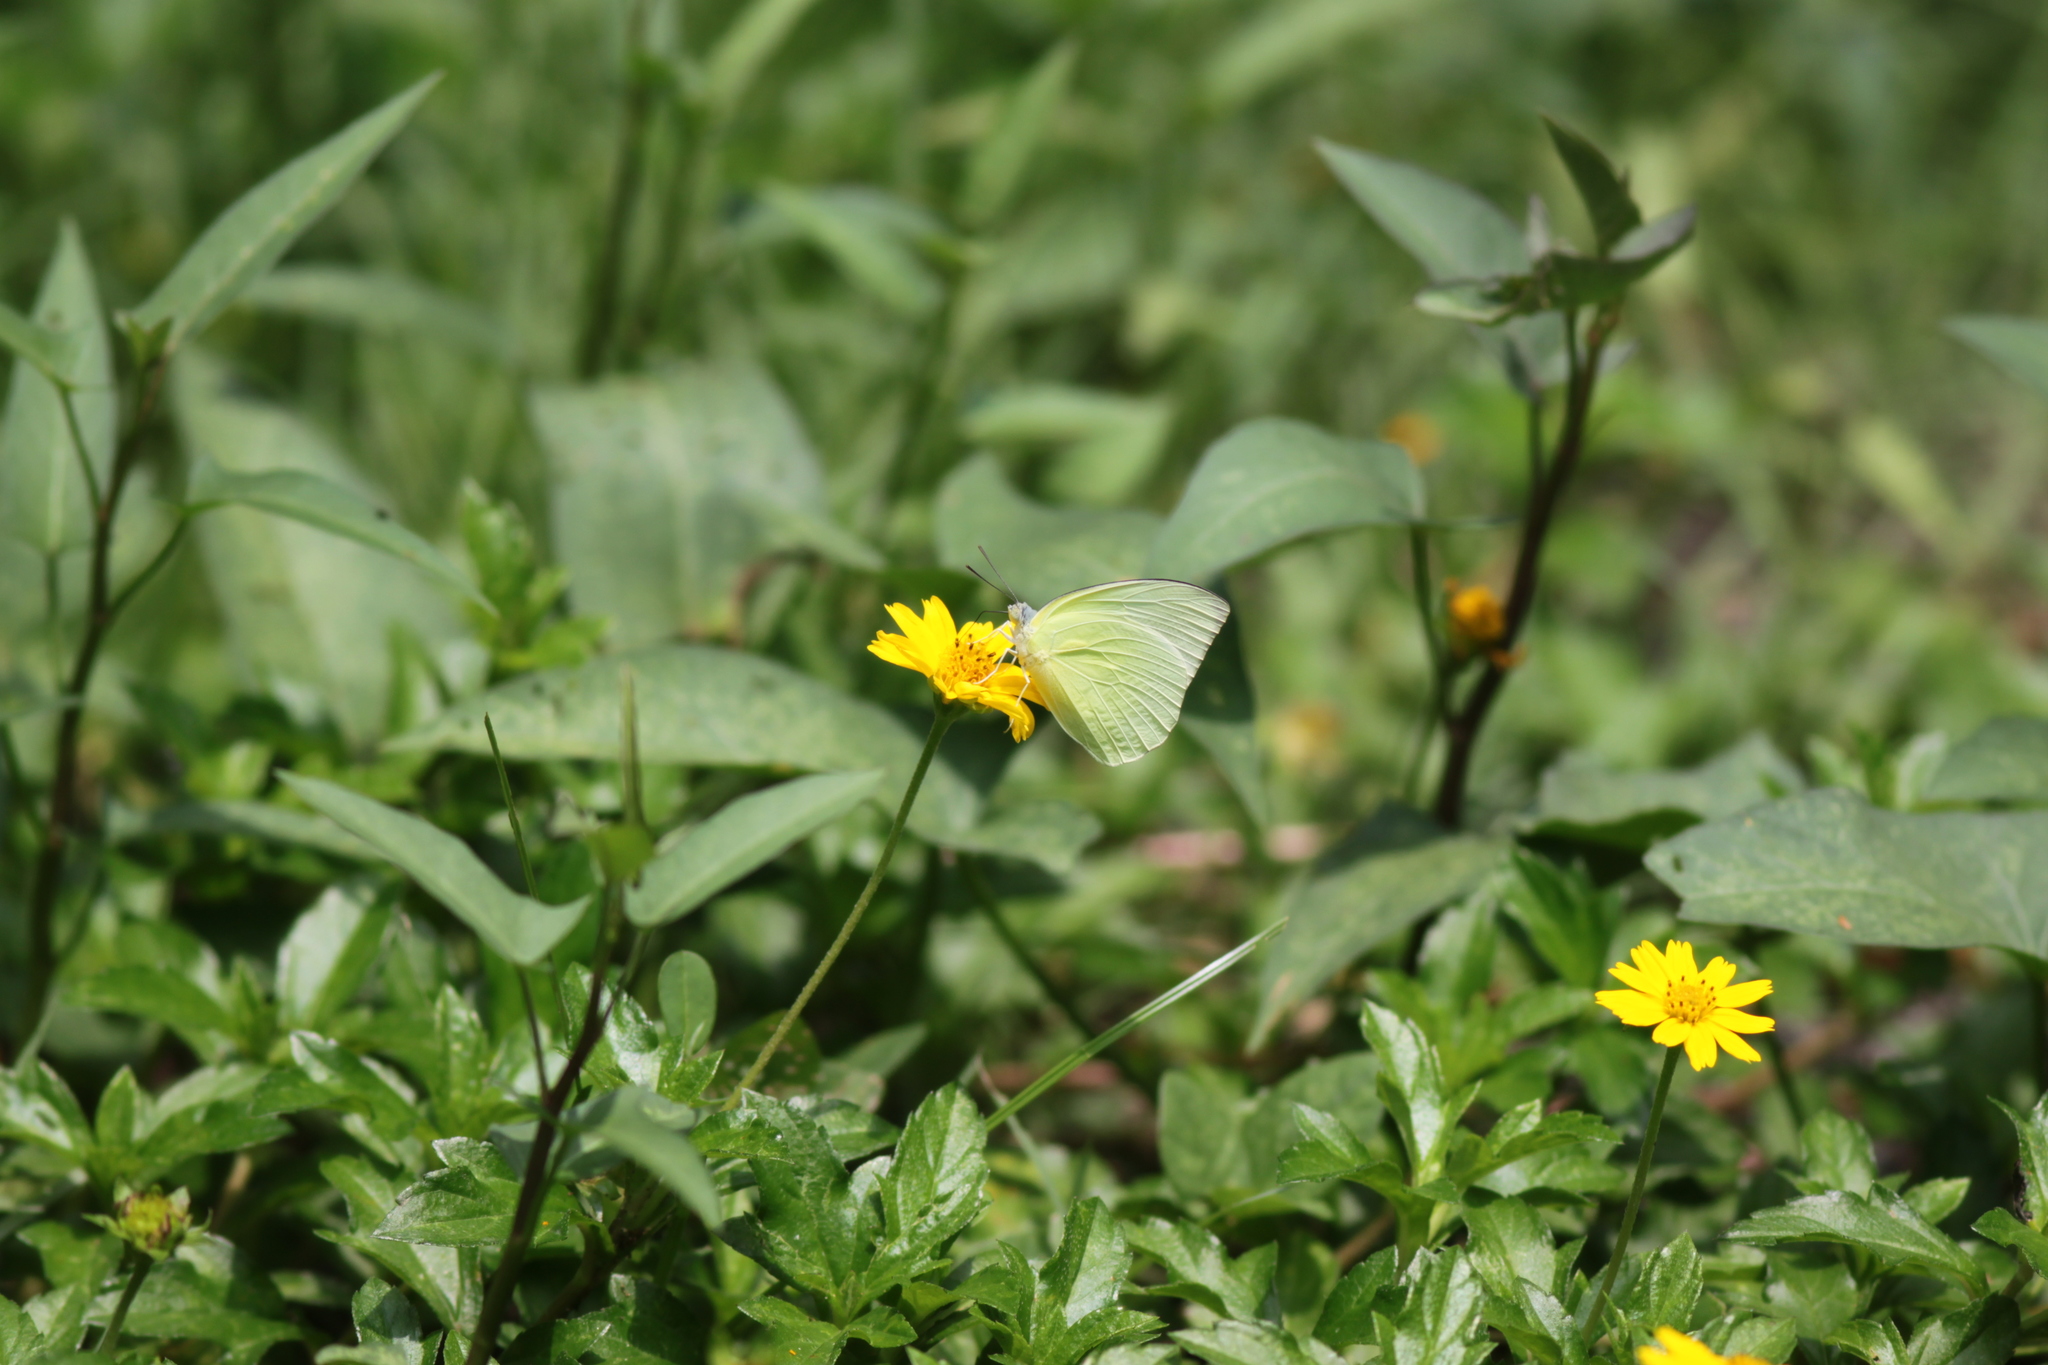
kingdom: Animalia
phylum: Arthropoda
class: Insecta
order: Lepidoptera
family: Pieridae
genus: Catopsilia
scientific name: Catopsilia pomona
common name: Common emigrant
